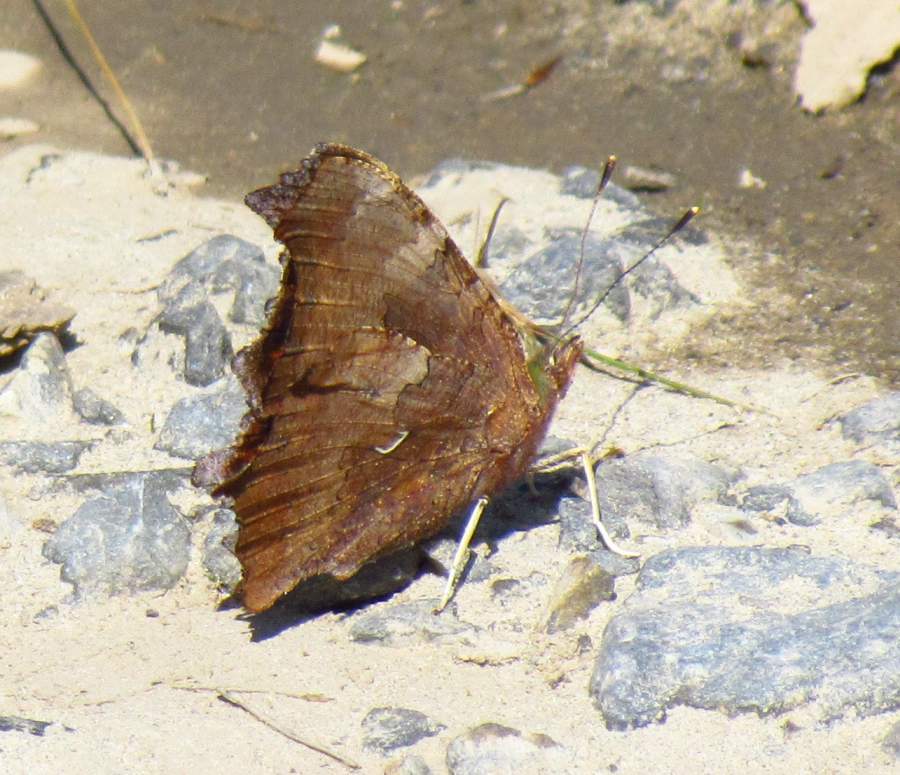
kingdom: Animalia
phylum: Arthropoda
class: Insecta
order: Lepidoptera
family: Nymphalidae
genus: Polygonia
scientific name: Polygonia comma
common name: Eastern comma
